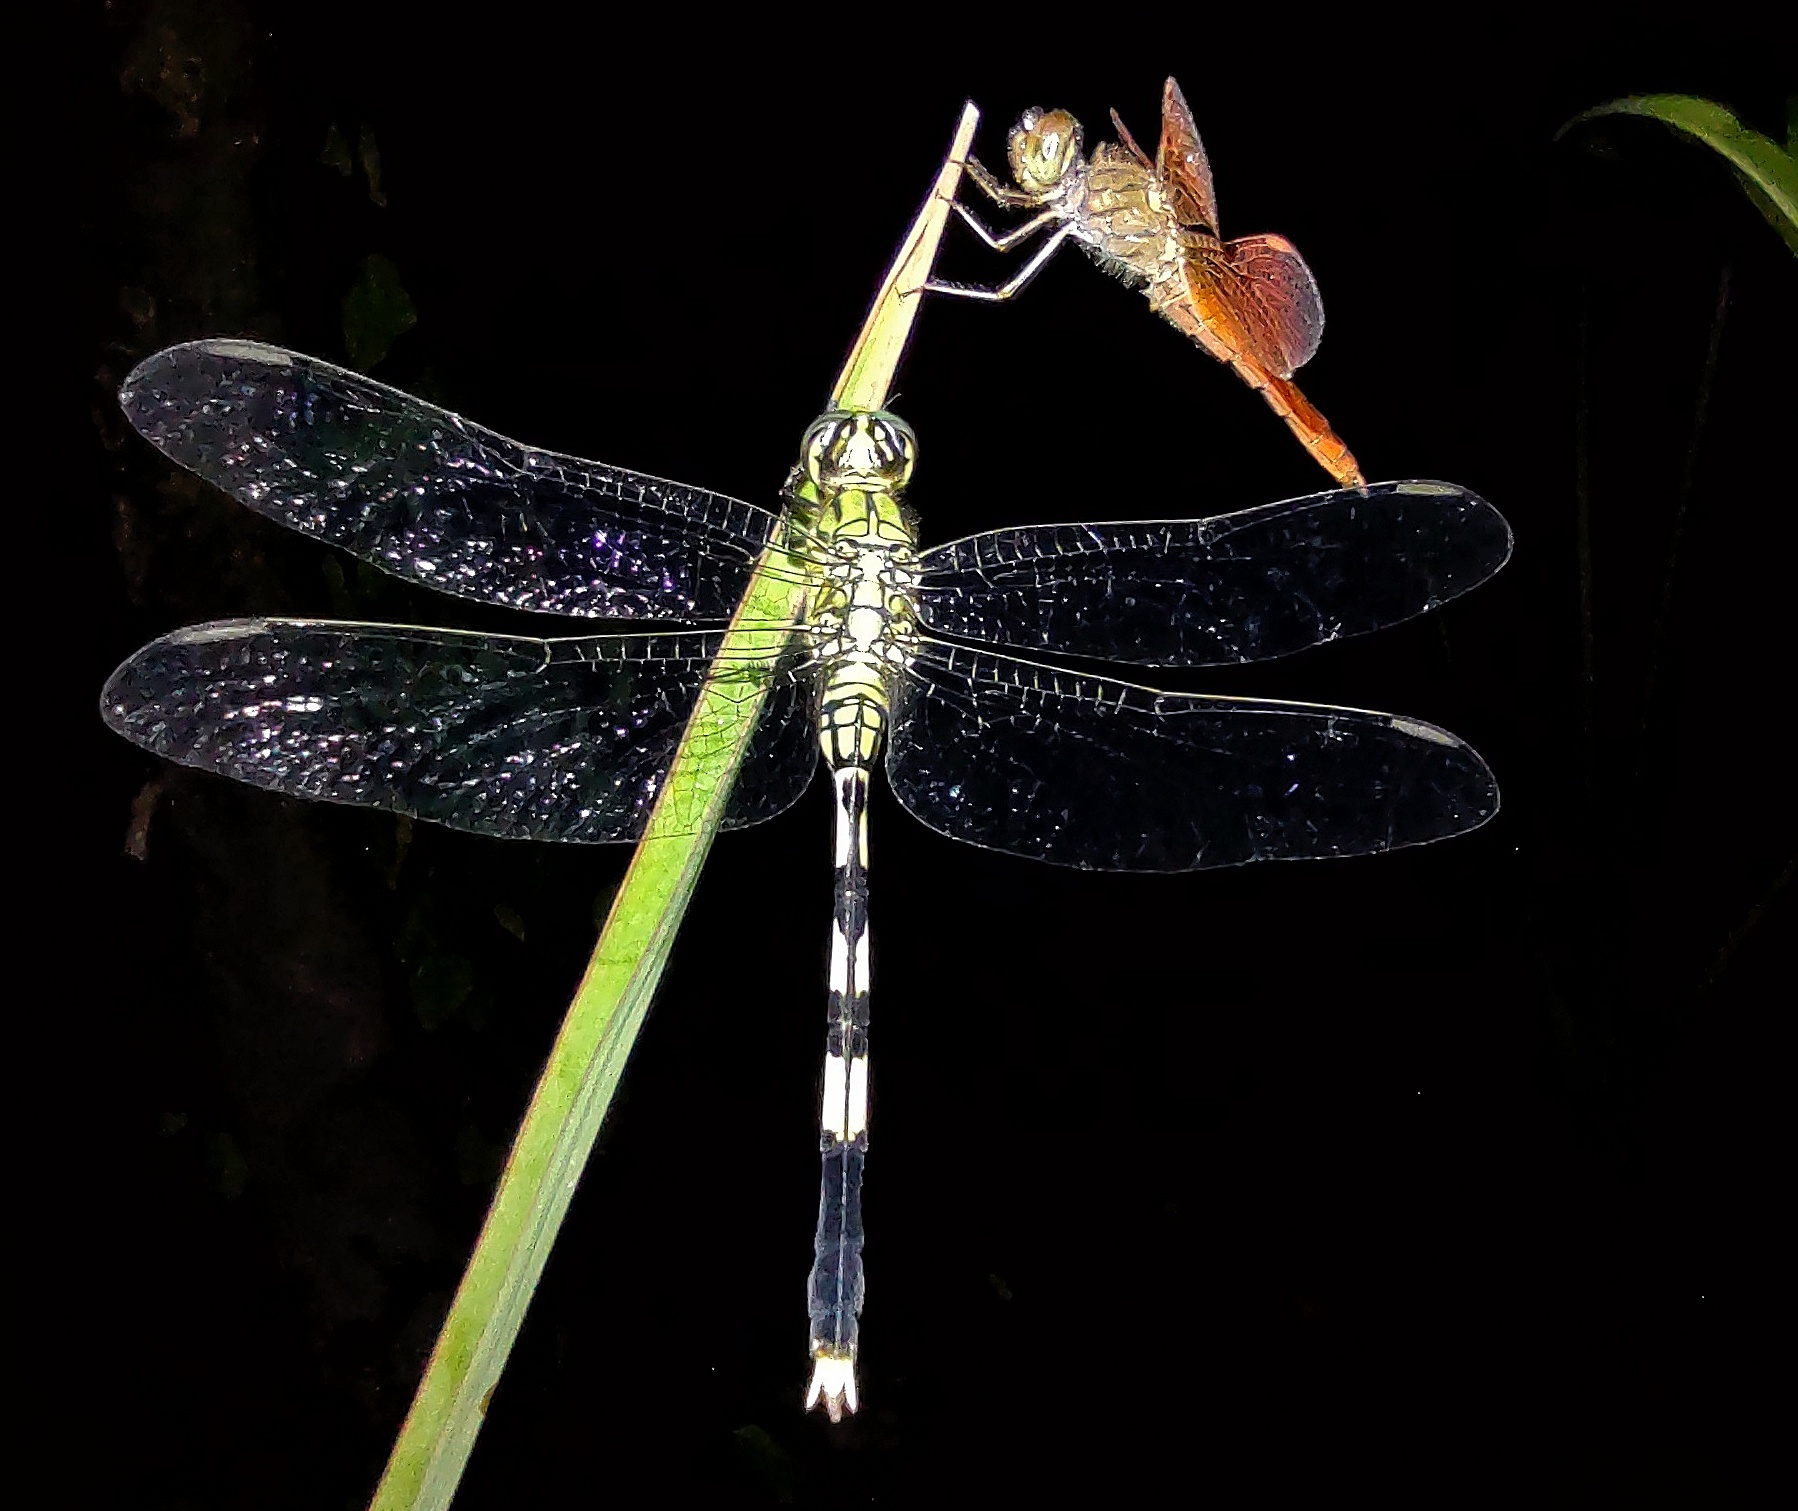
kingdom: Animalia
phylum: Arthropoda
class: Insecta
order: Odonata
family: Libellulidae
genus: Orthetrum
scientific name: Orthetrum sabina
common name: Slender skimmer
